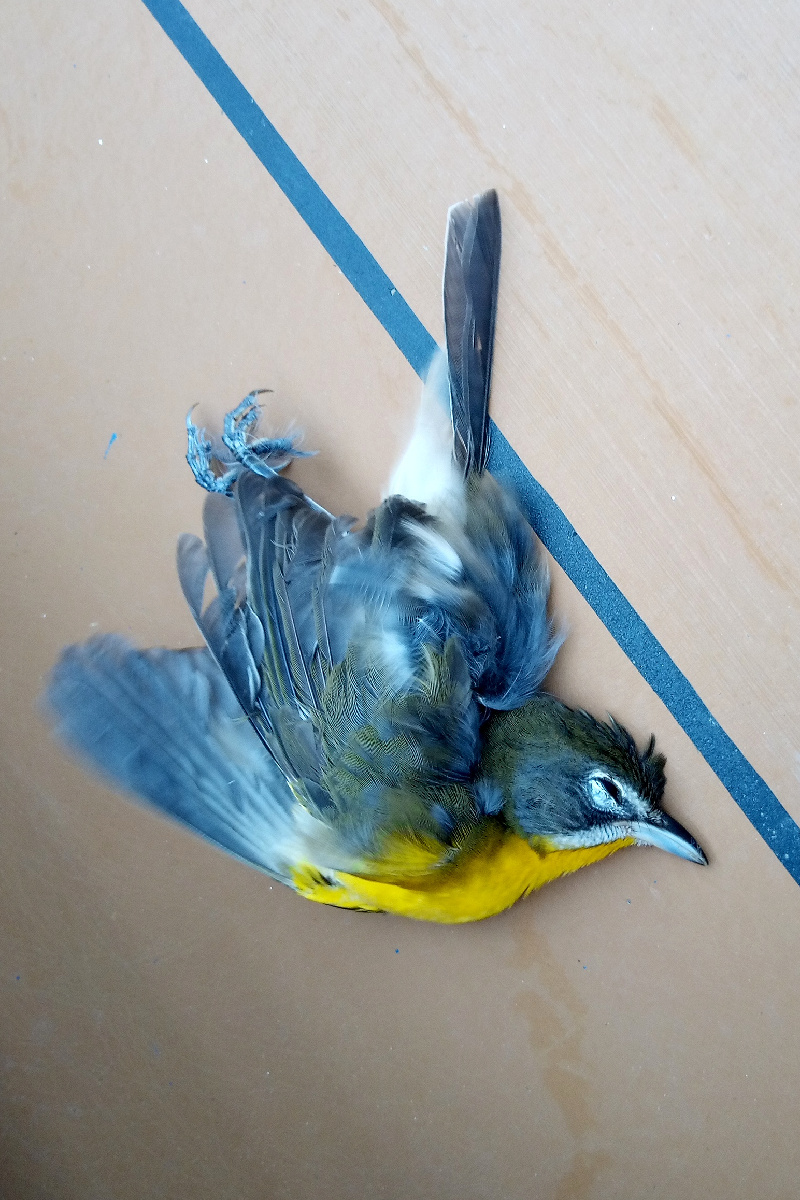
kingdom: Animalia
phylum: Chordata
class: Aves
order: Passeriformes
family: Parulidae
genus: Icteria
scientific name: Icteria virens
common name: Yellow-breasted chat
